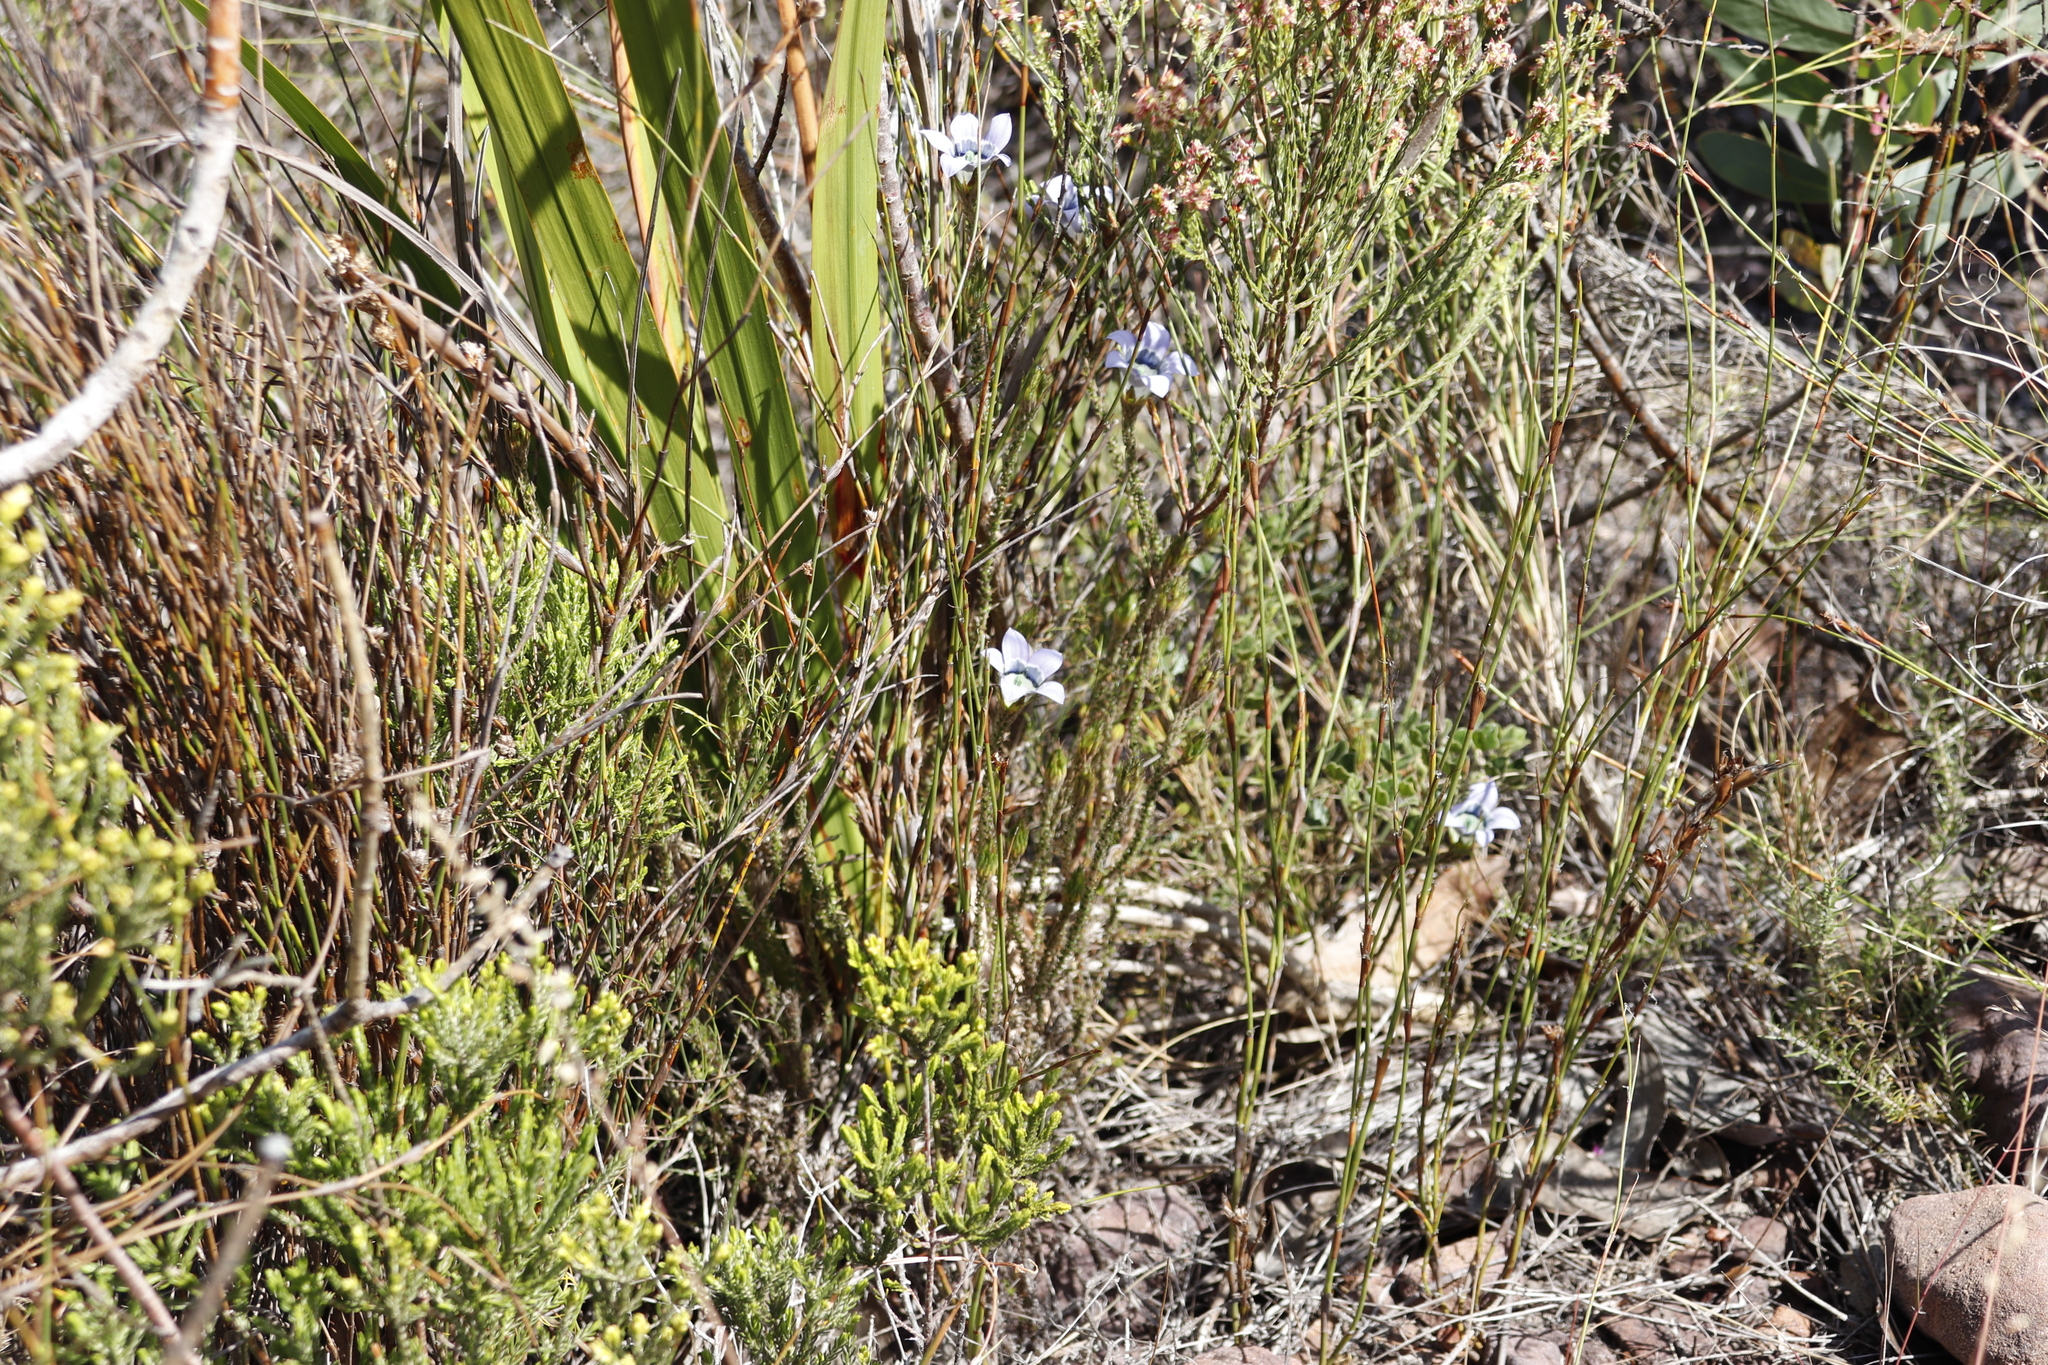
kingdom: Plantae
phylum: Tracheophyta
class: Magnoliopsida
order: Asterales
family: Campanulaceae
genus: Roella
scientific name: Roella ciliata
